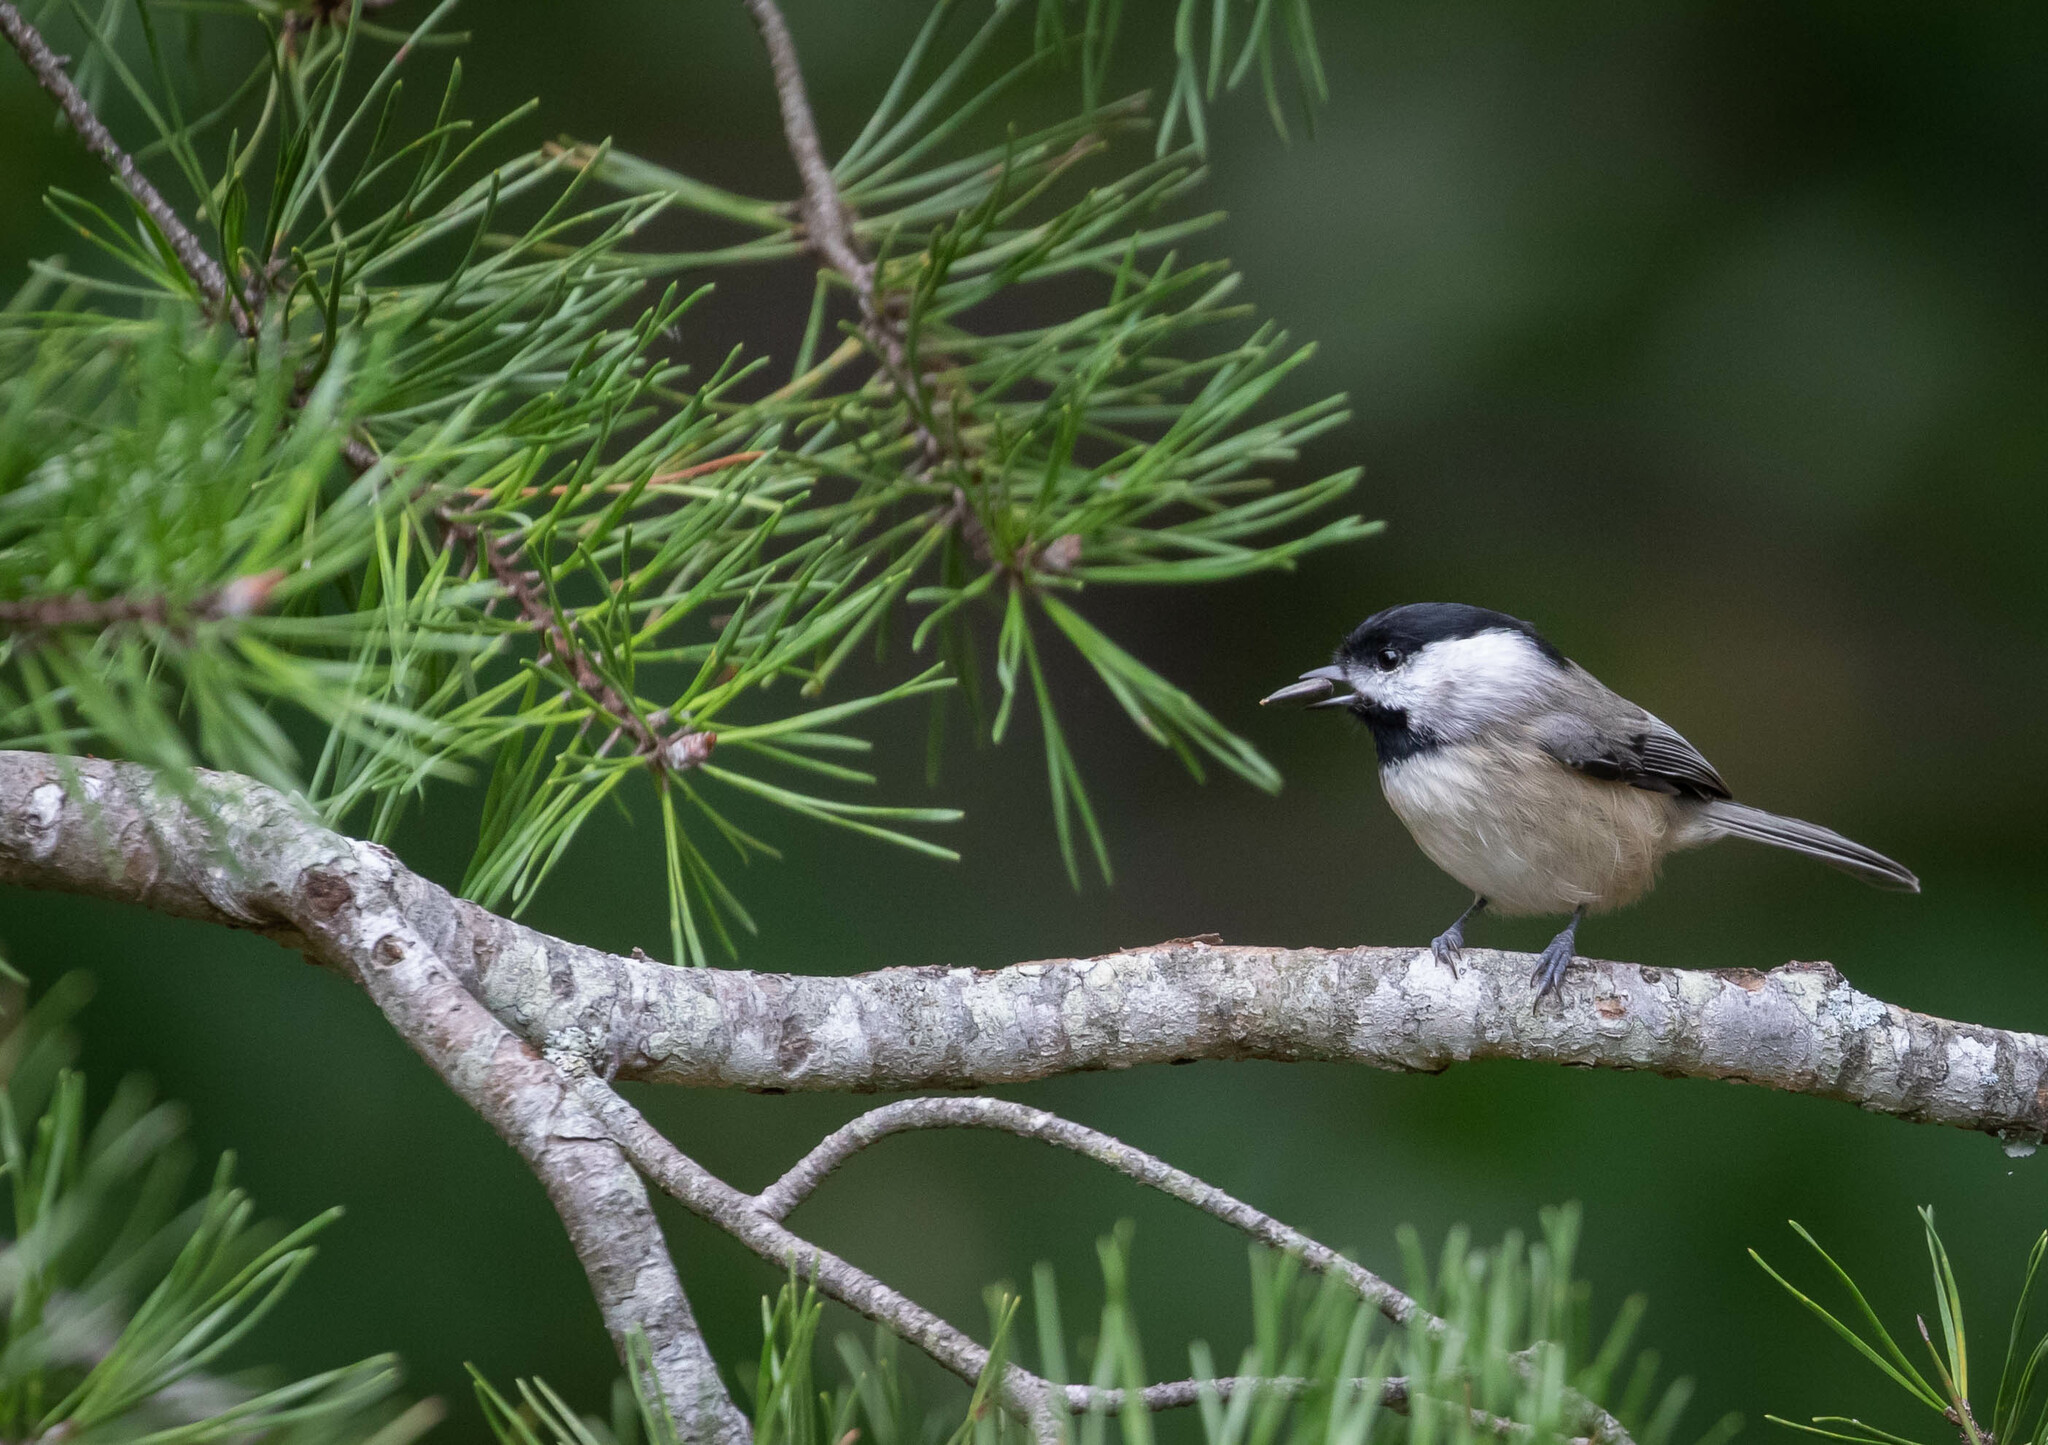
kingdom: Animalia
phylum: Chordata
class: Aves
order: Passeriformes
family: Paridae
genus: Poecile
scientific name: Poecile carolinensis
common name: Carolina chickadee
